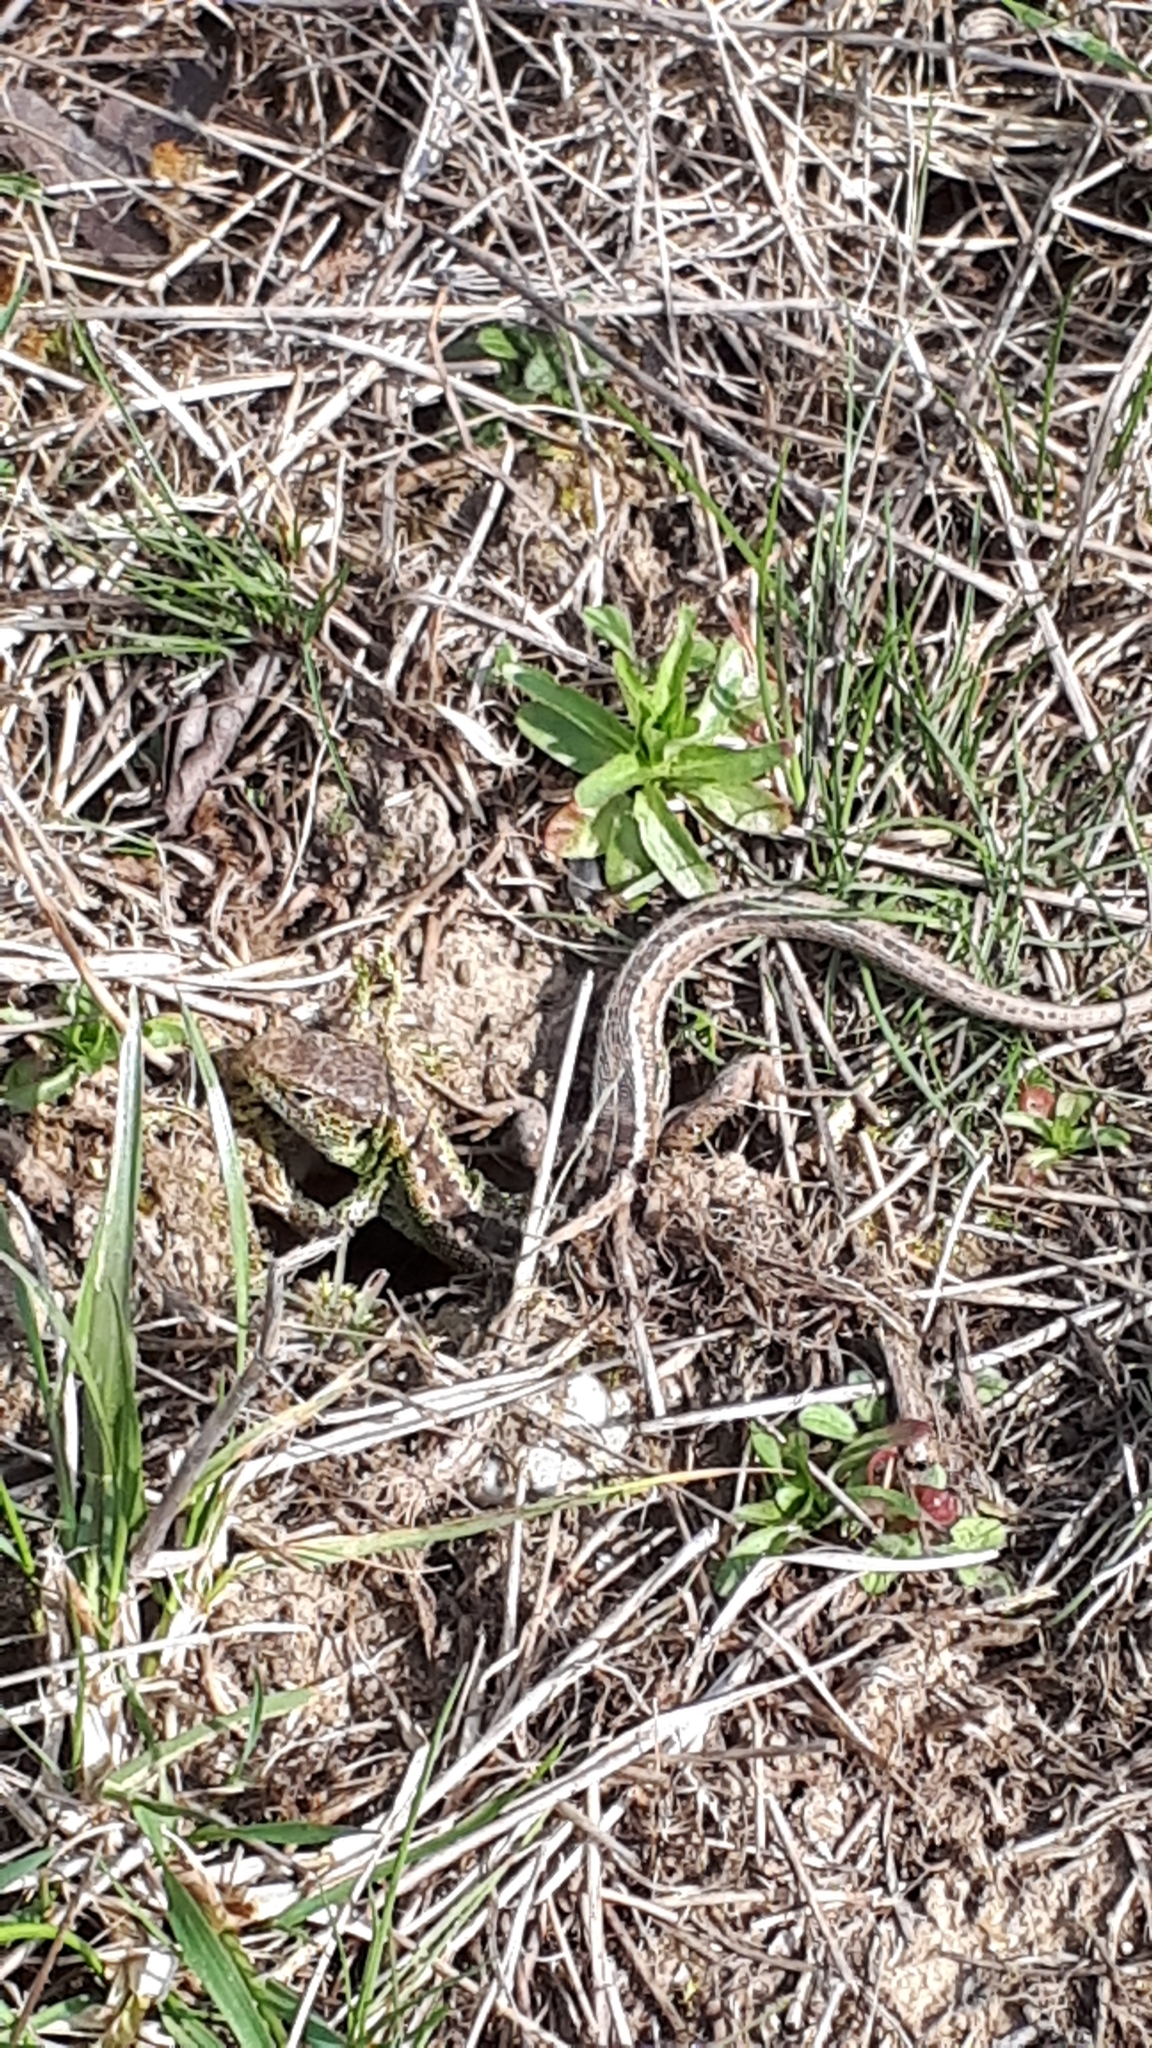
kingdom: Animalia
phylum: Chordata
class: Squamata
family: Lacertidae
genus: Lacerta
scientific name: Lacerta agilis
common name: Sand lizard
